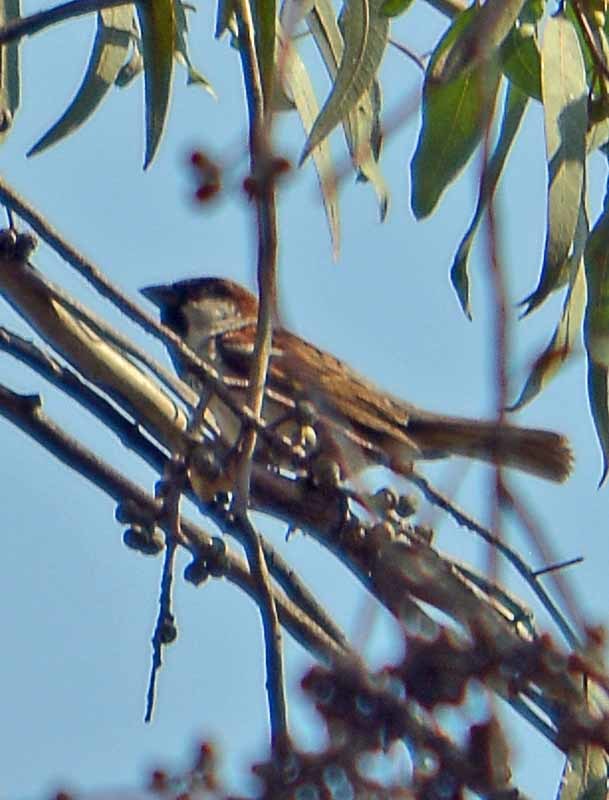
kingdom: Animalia
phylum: Chordata
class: Aves
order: Passeriformes
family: Passeridae
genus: Passer
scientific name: Passer domesticus
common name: House sparrow
